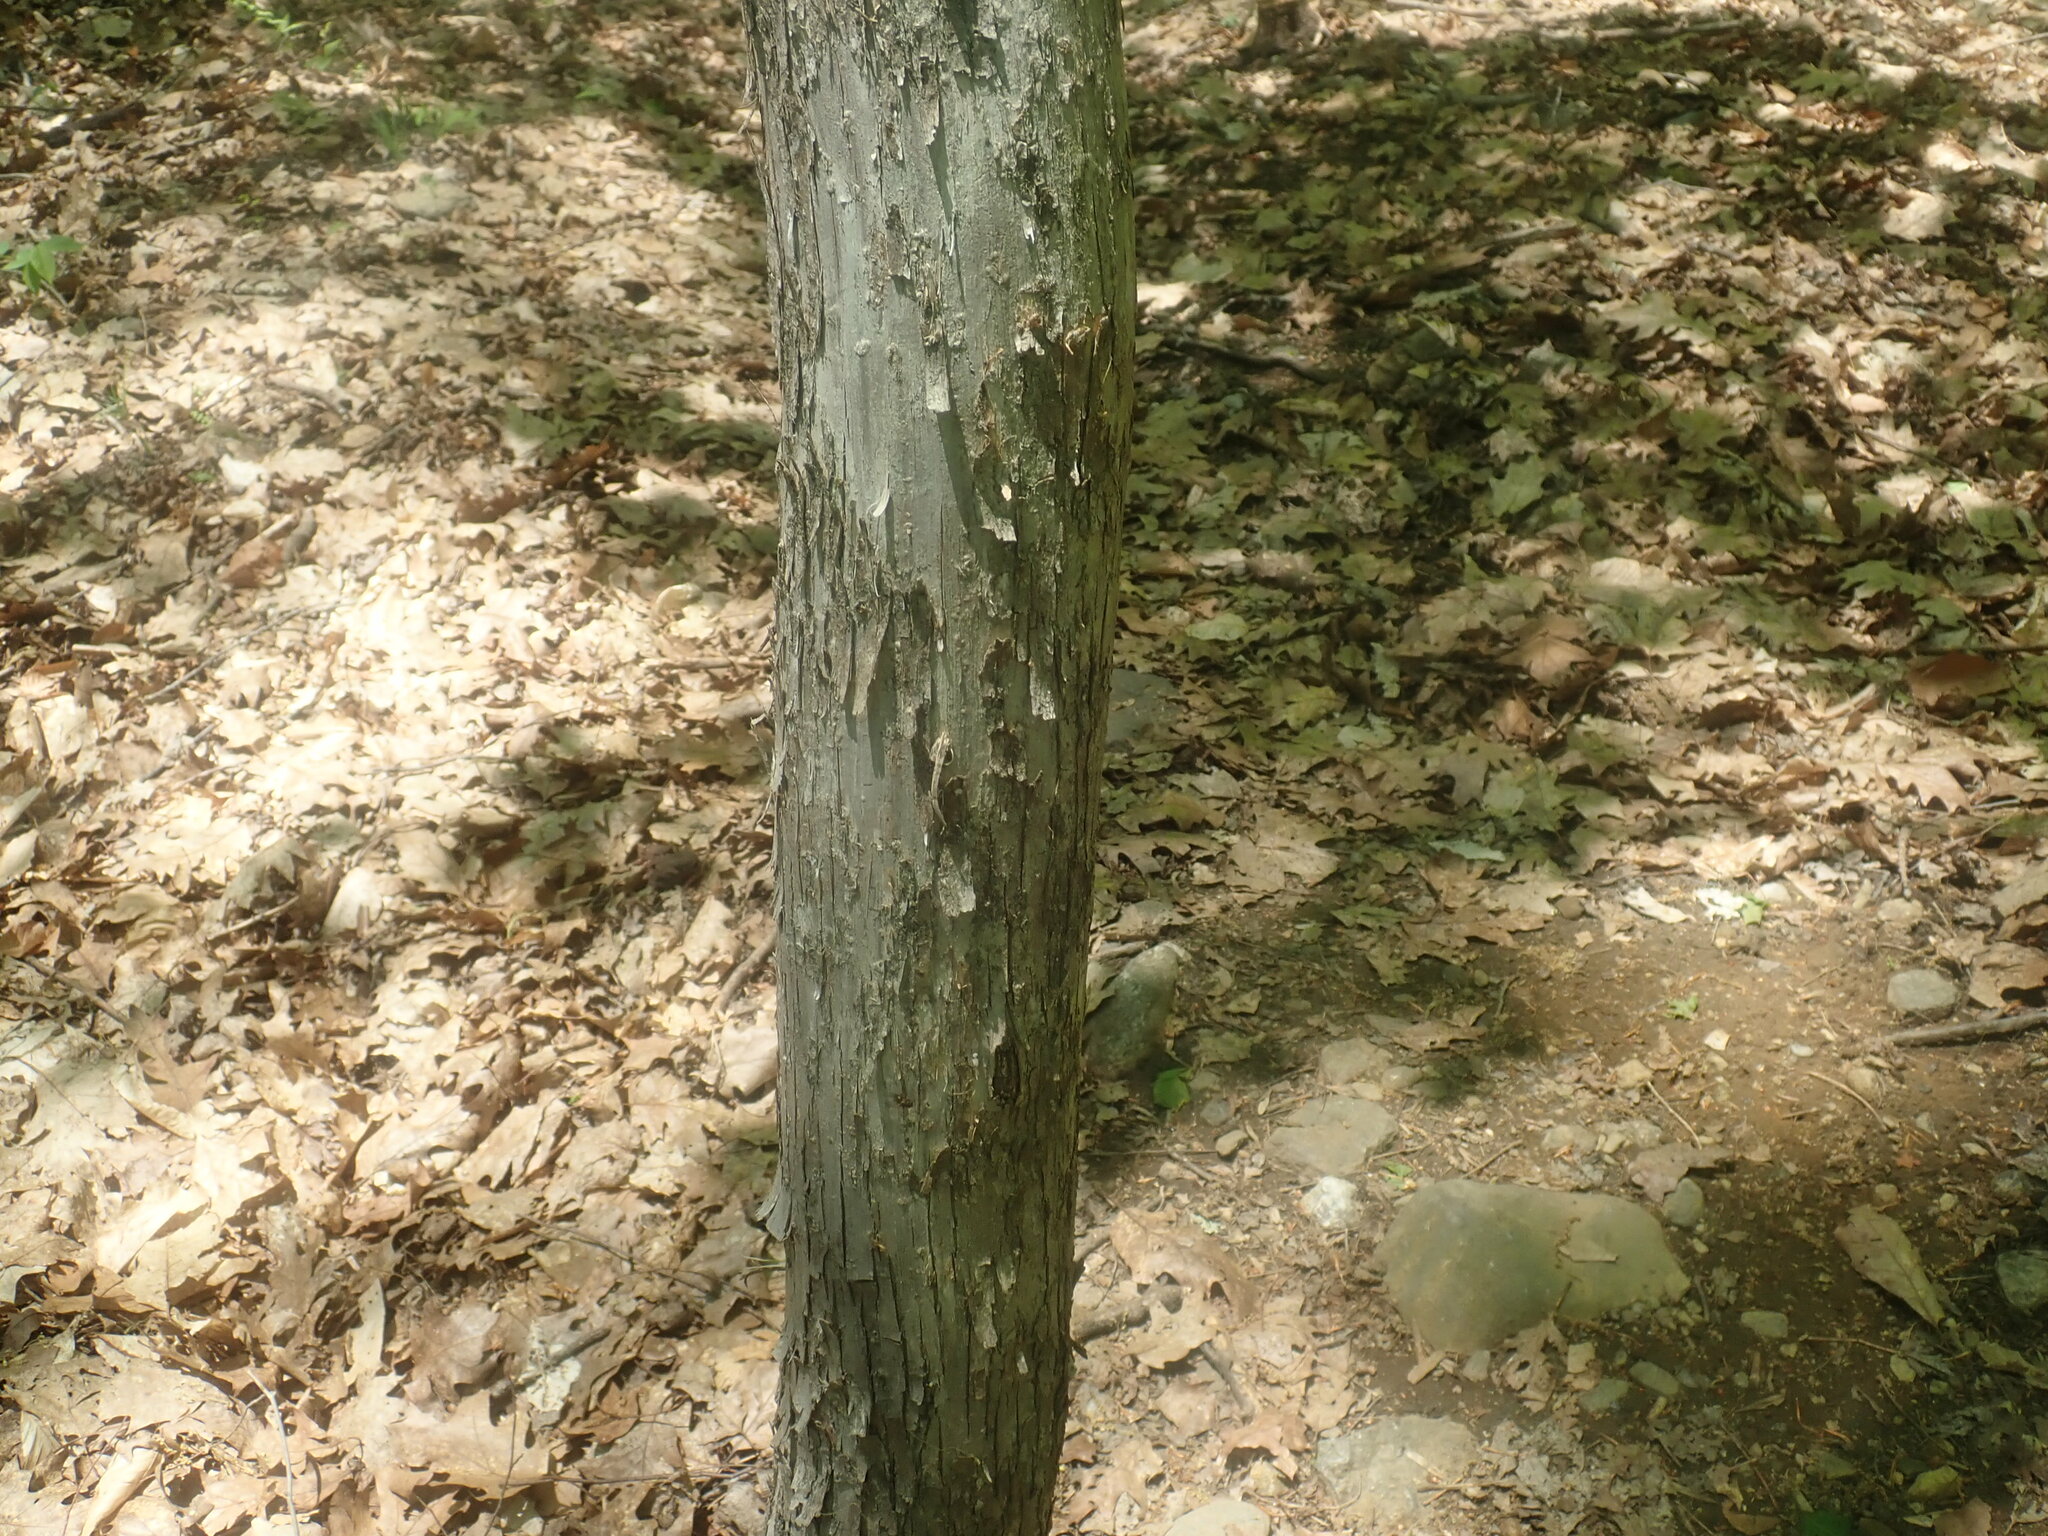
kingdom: Plantae
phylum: Tracheophyta
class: Magnoliopsida
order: Fagales
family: Betulaceae
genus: Ostrya
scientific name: Ostrya virginiana
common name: Ironwood
